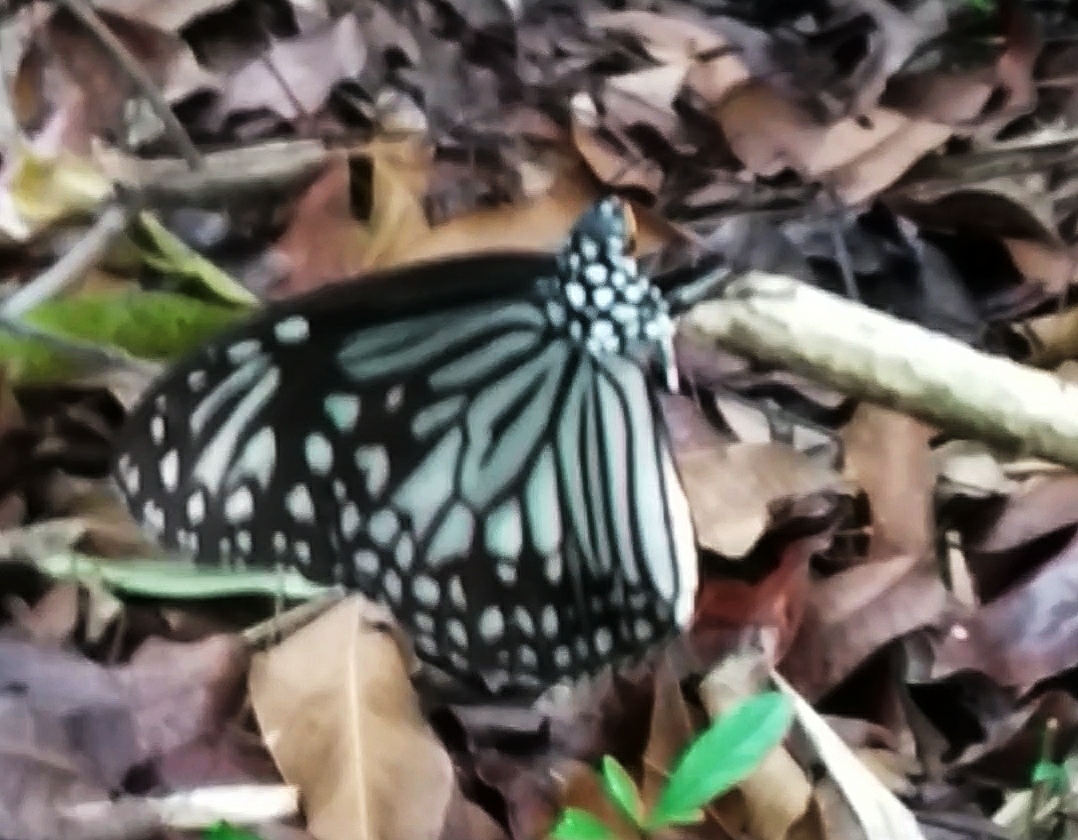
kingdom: Animalia
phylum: Arthropoda
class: Insecta
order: Lepidoptera
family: Nymphalidae
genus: Parantica
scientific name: Parantica aglea
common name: Glassy tiger
